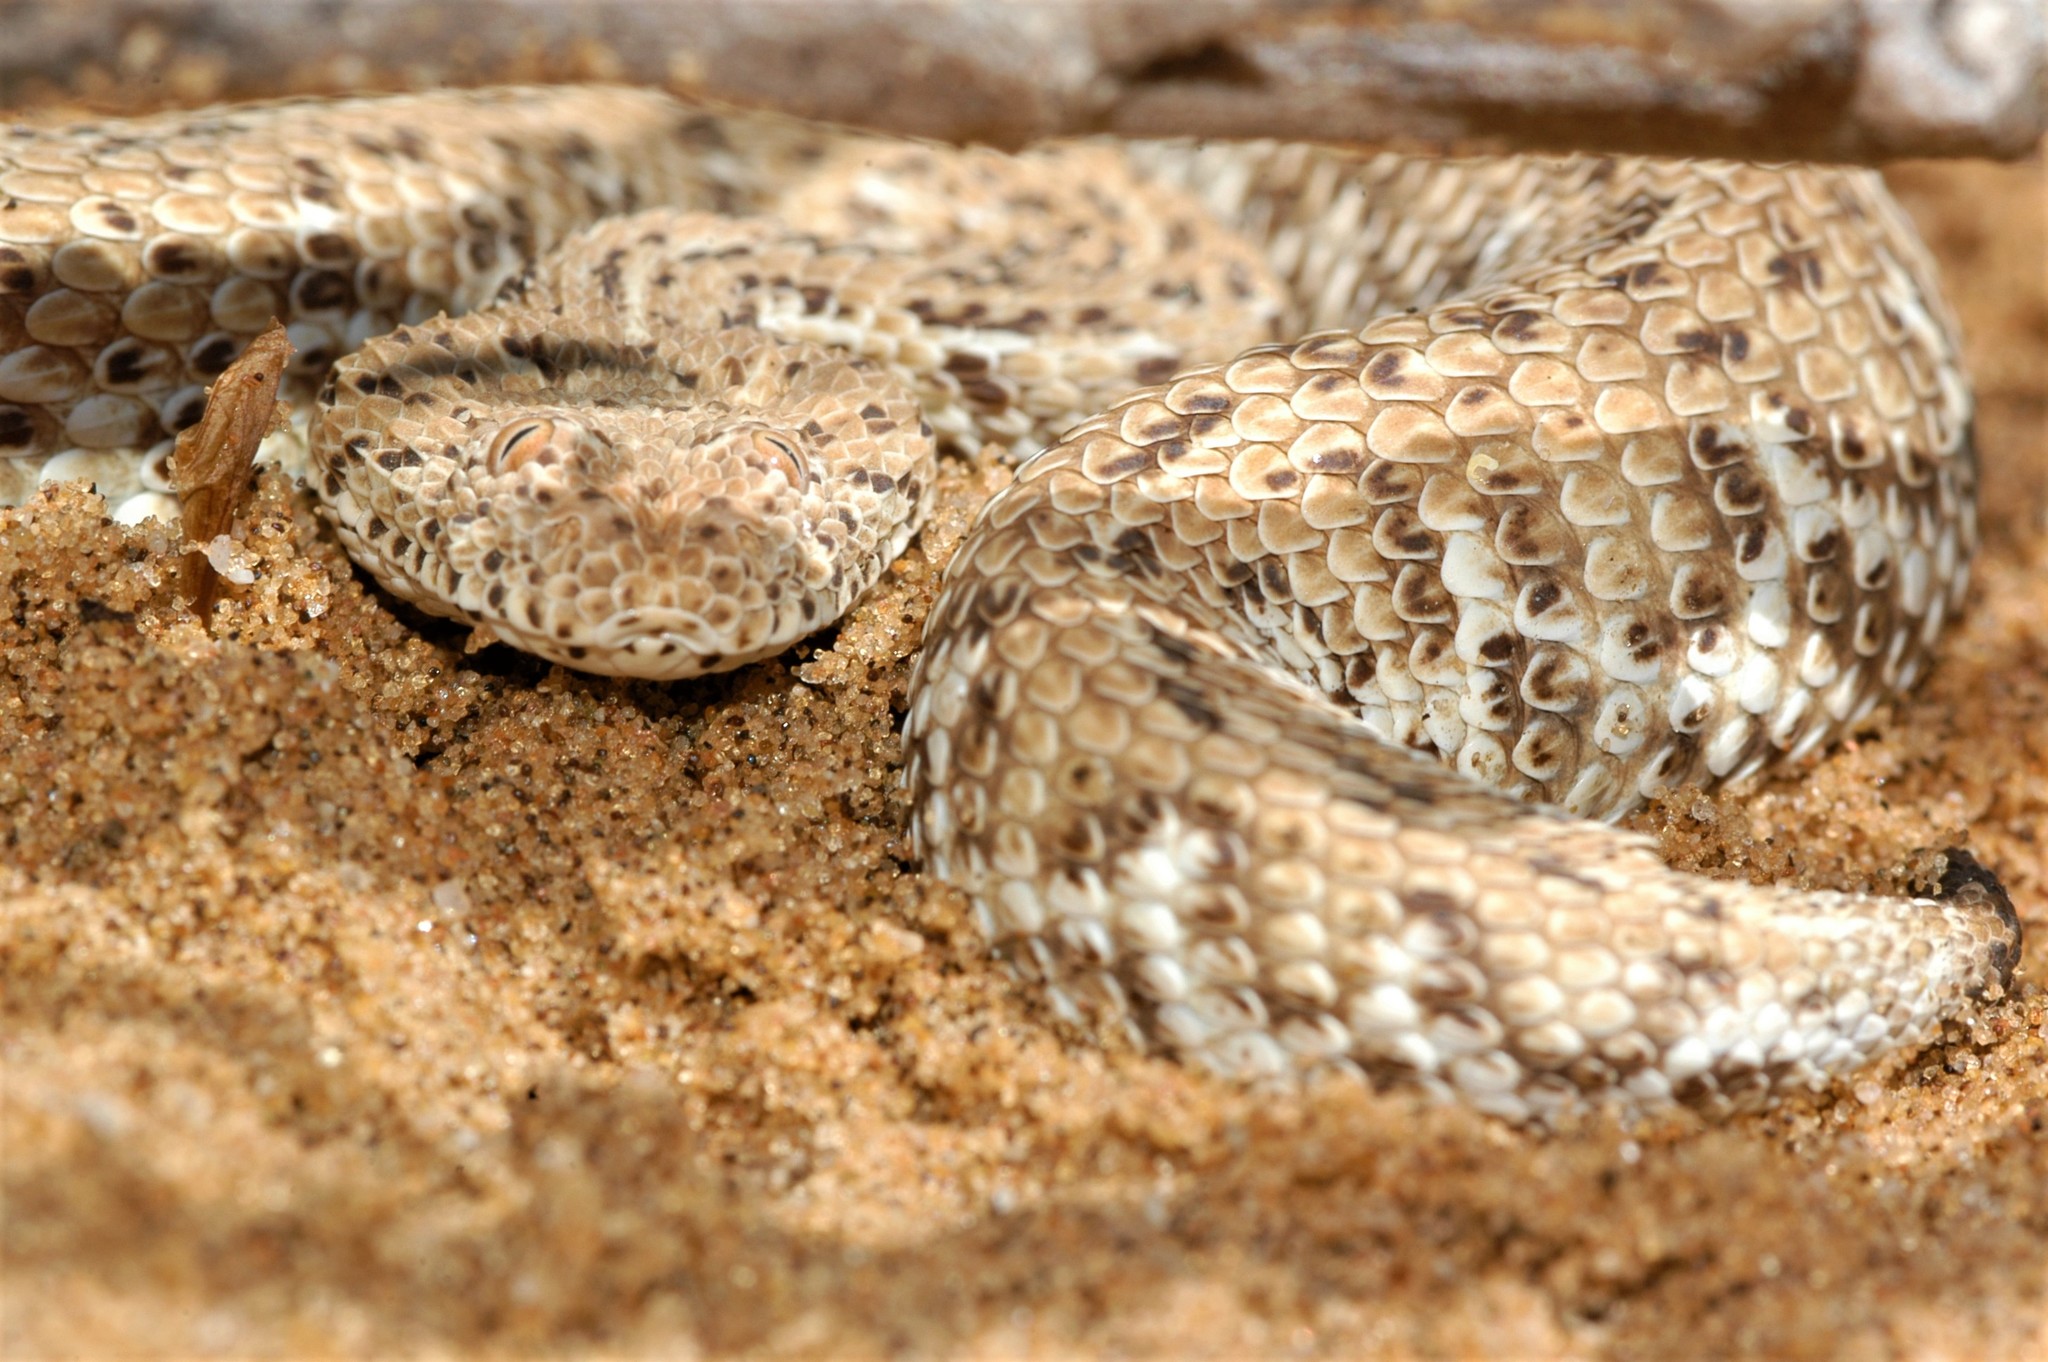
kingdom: Animalia
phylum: Chordata
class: Squamata
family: Viperidae
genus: Bitis
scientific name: Bitis peringueyi
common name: Dwarf puff adder
